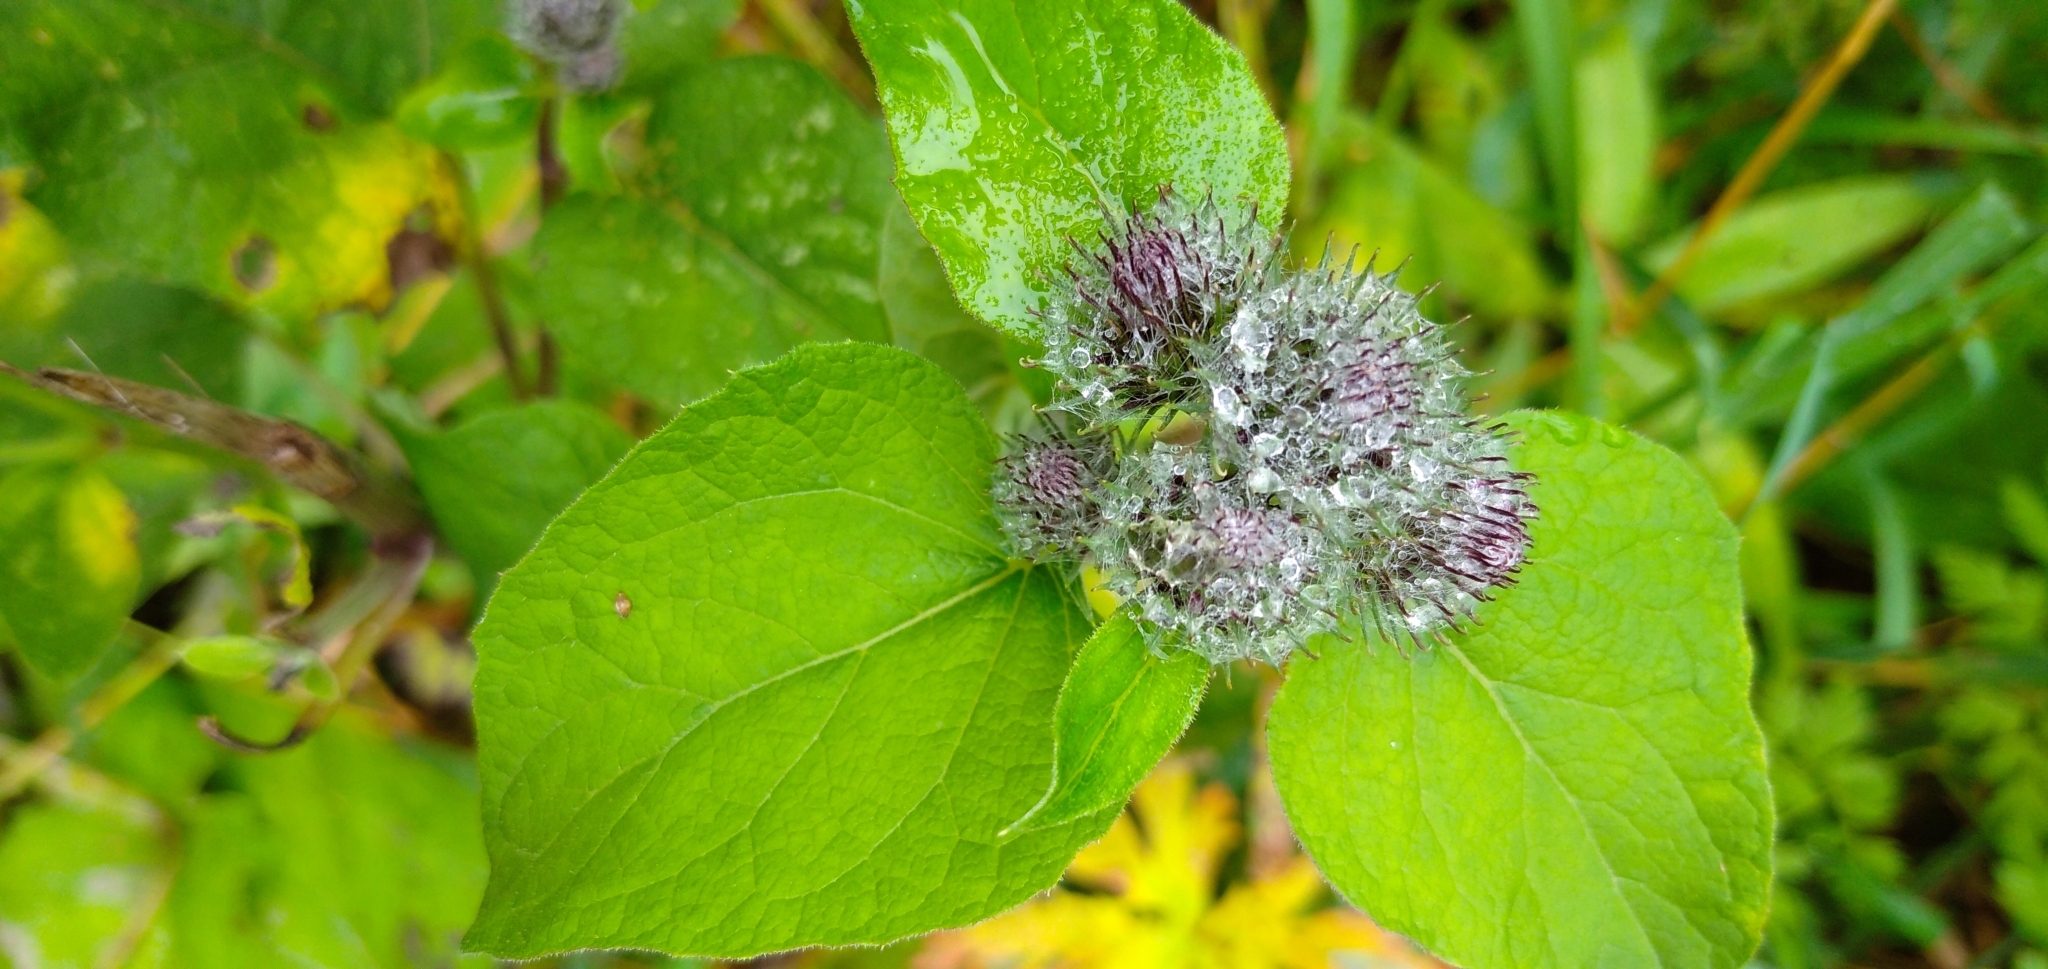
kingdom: Plantae
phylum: Tracheophyta
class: Magnoliopsida
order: Asterales
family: Asteraceae
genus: Arctium
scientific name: Arctium tomentosum
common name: Woolly burdock
